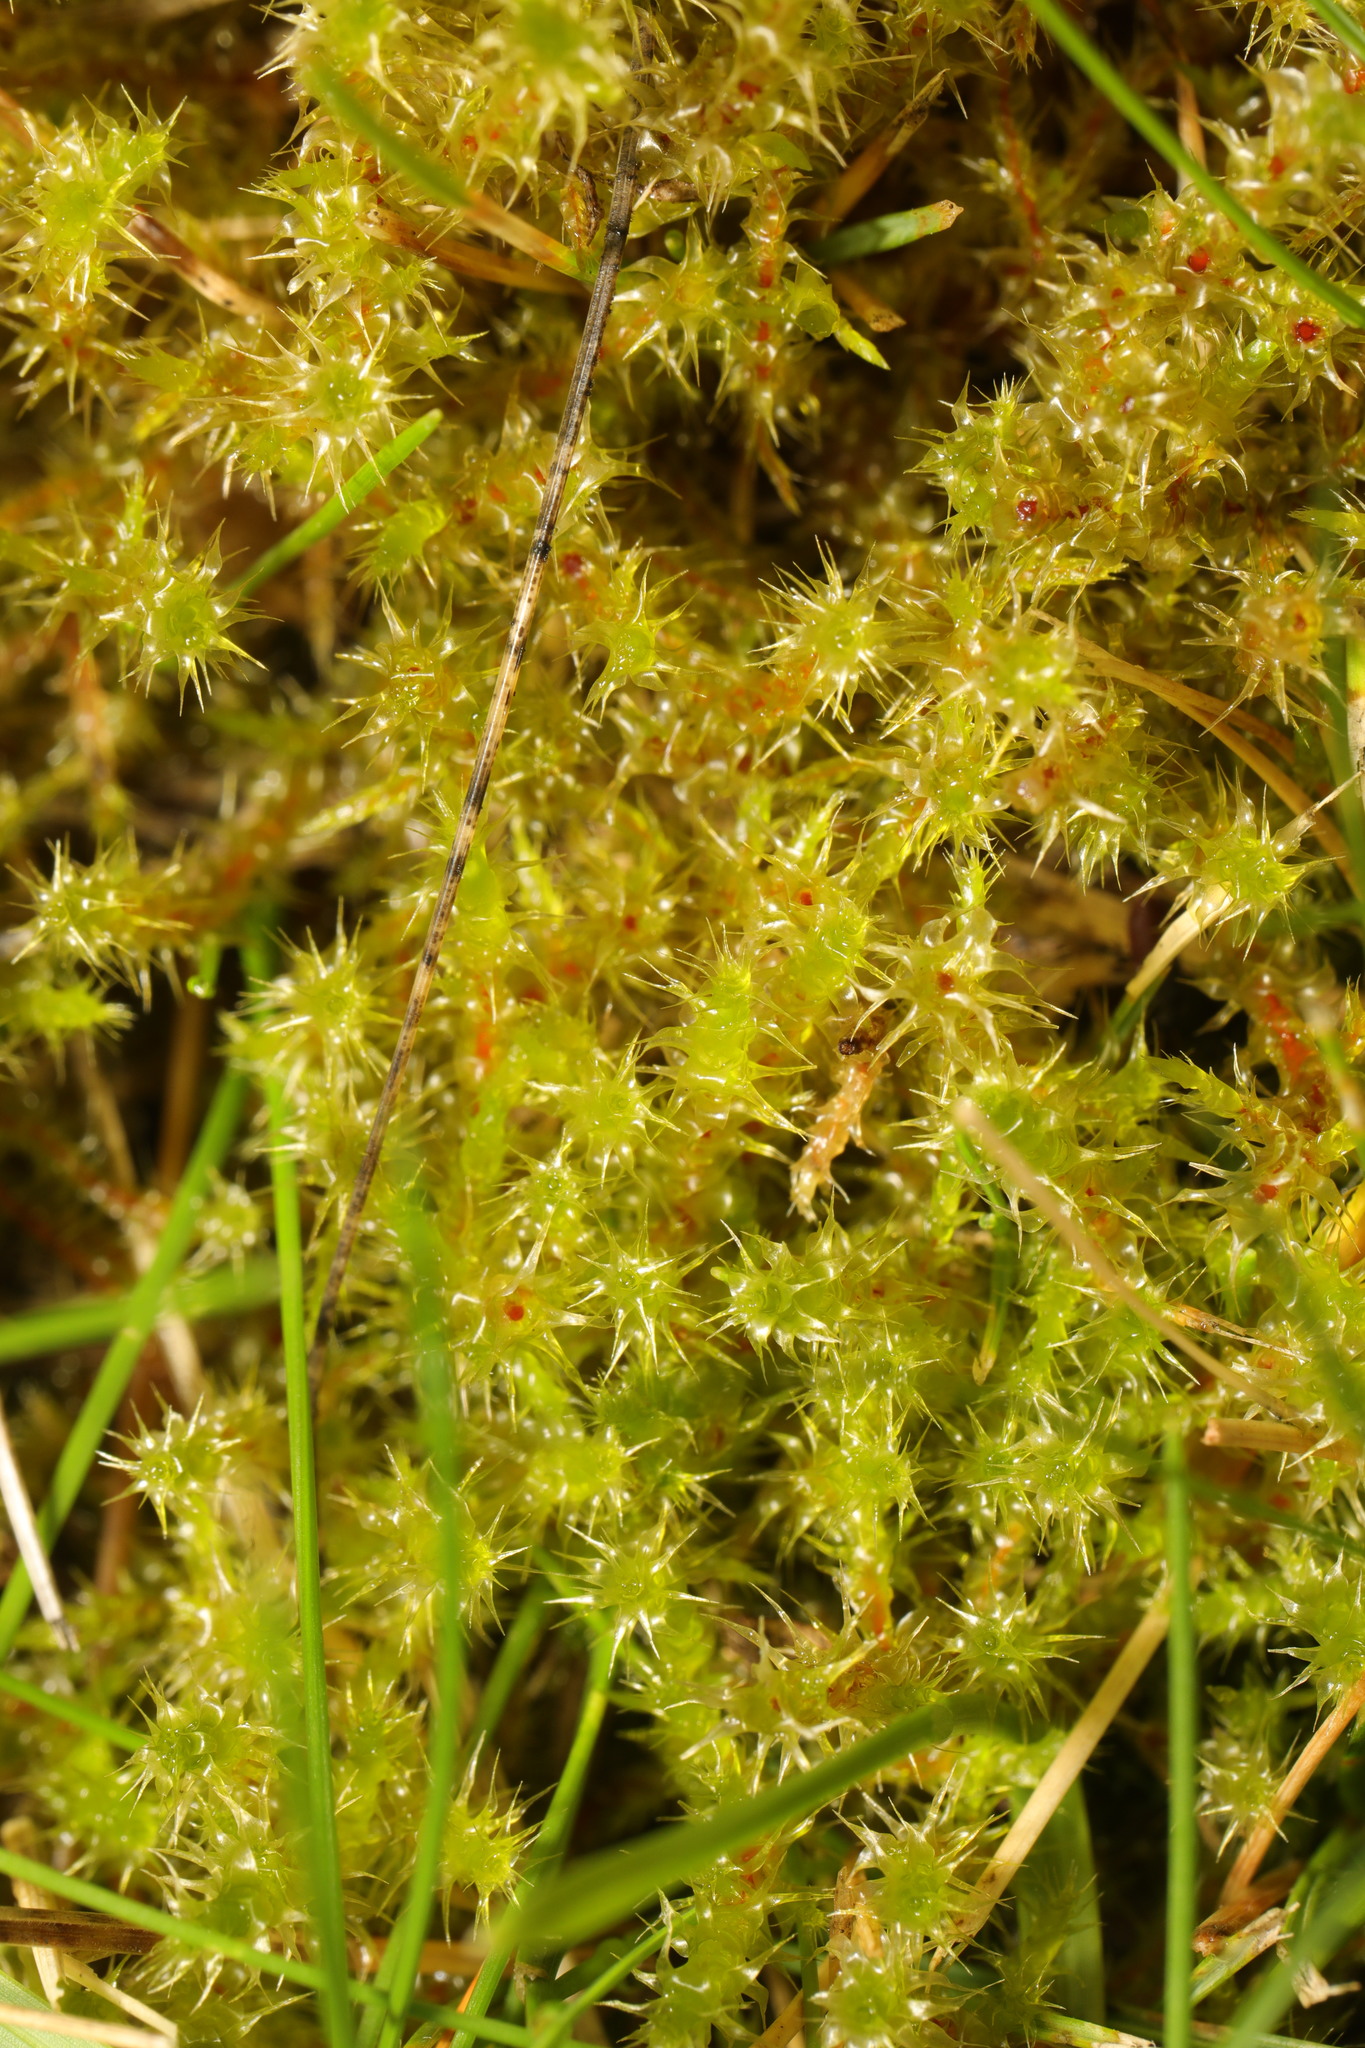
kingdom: Plantae
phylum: Bryophyta
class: Bryopsida
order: Hypnales
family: Hylocomiaceae
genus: Rhytidiadelphus
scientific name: Rhytidiadelphus squarrosus
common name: Springy turf-moss
